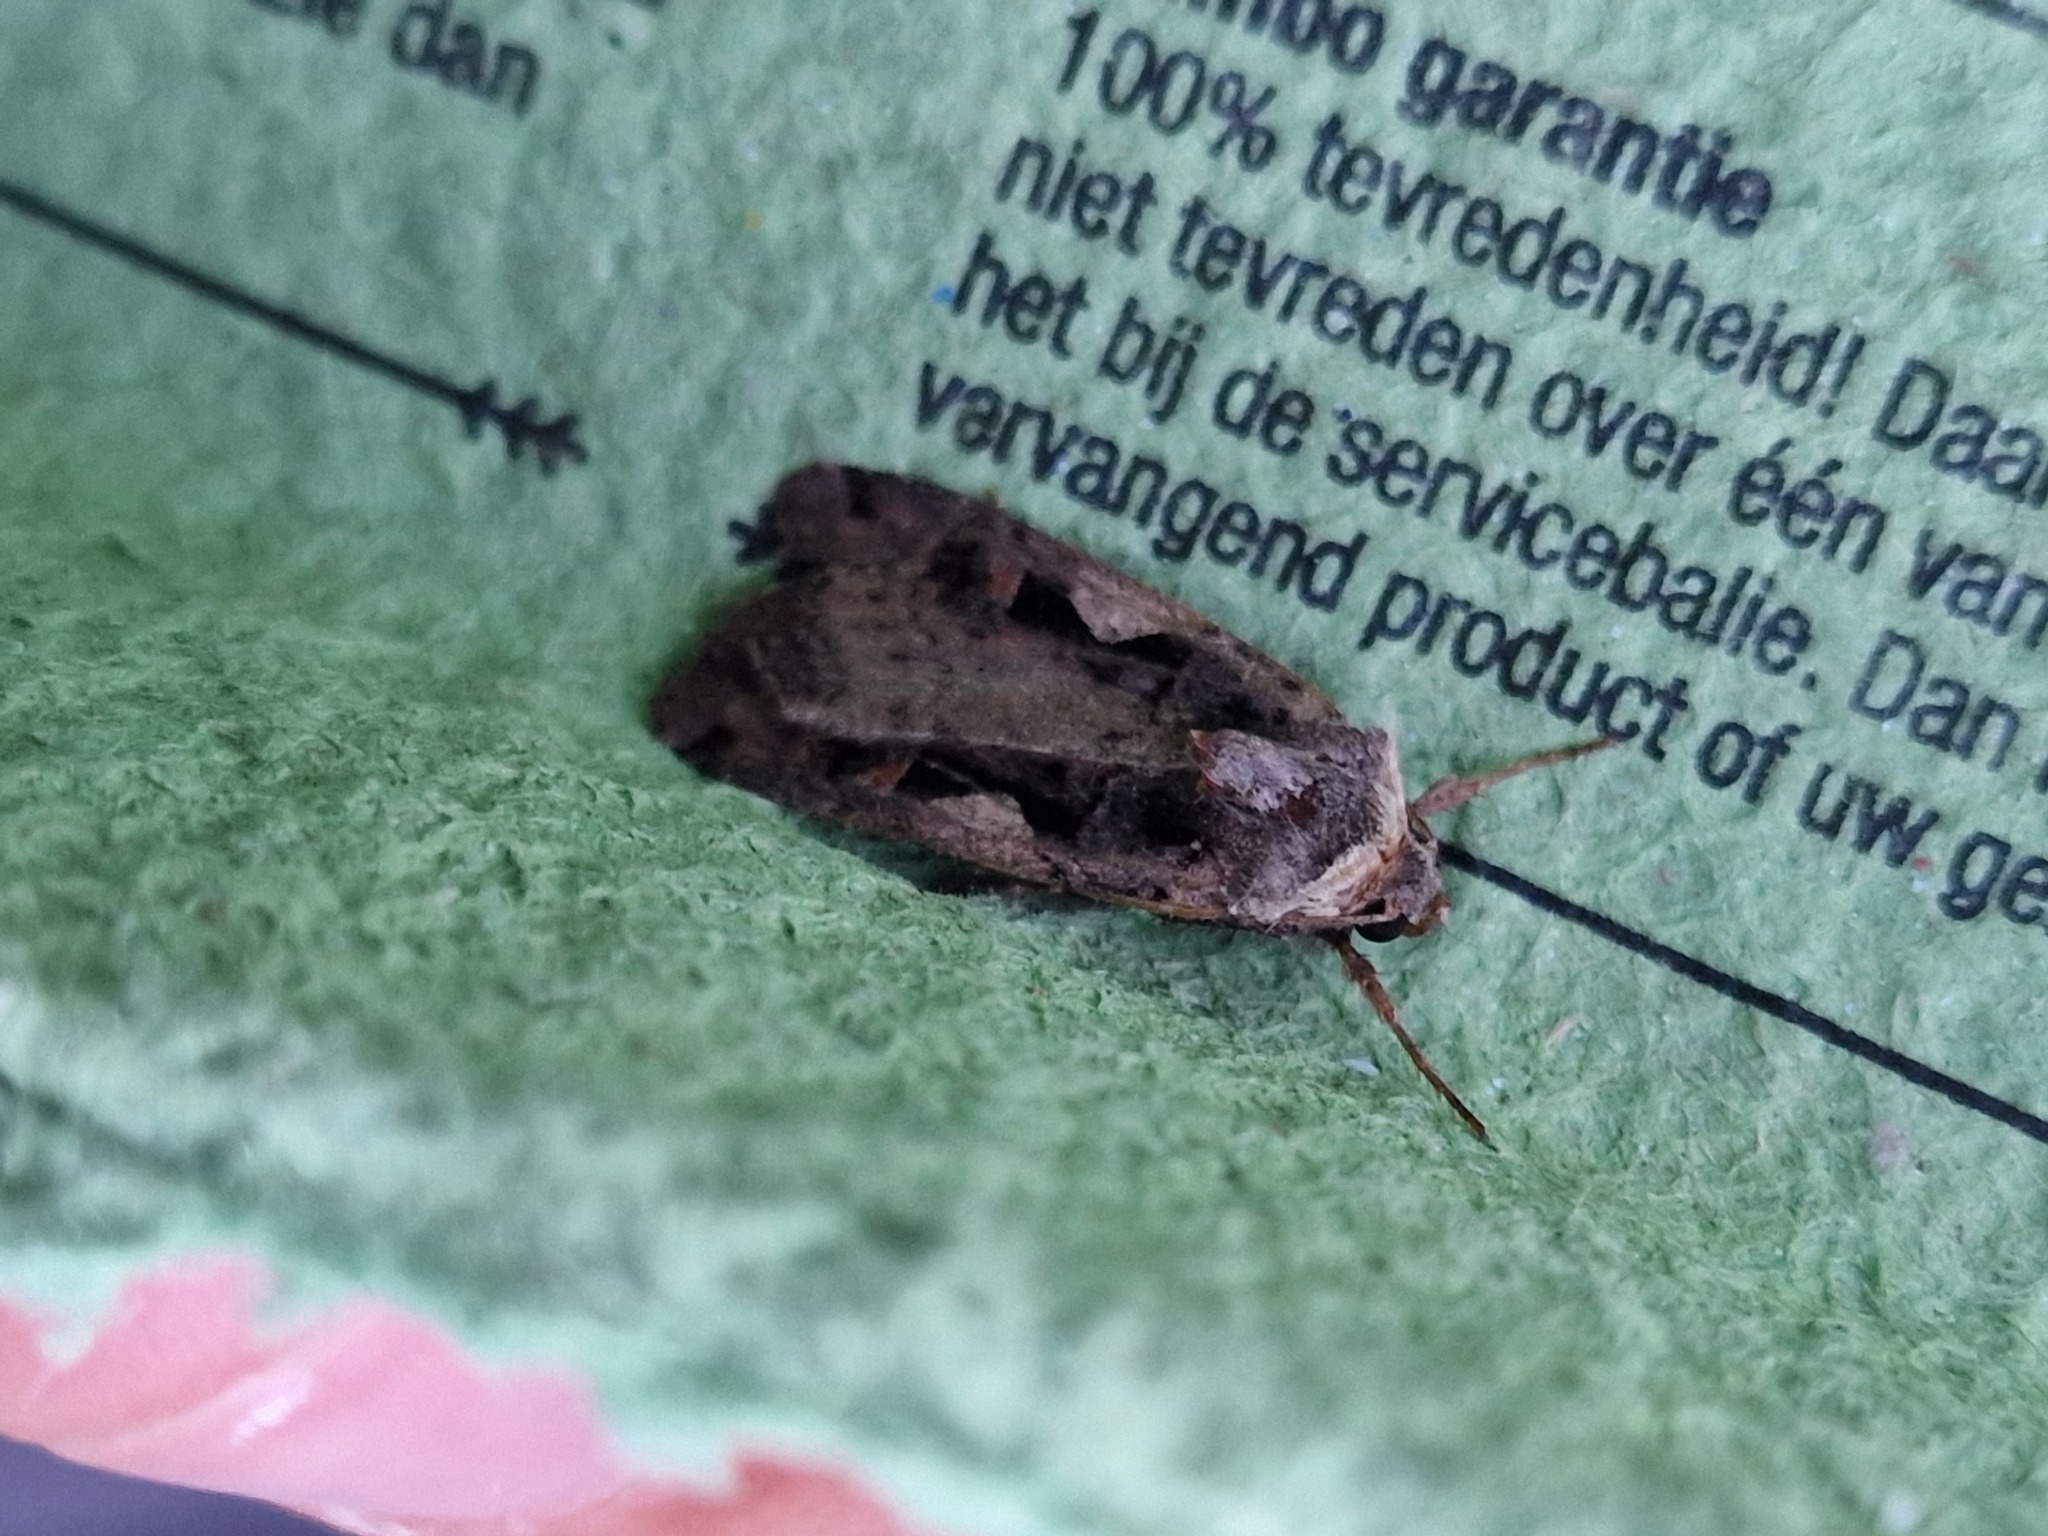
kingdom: Animalia
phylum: Arthropoda
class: Insecta
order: Lepidoptera
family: Noctuidae
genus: Xestia
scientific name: Xestia c-nigrum
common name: Setaceous hebrew character
